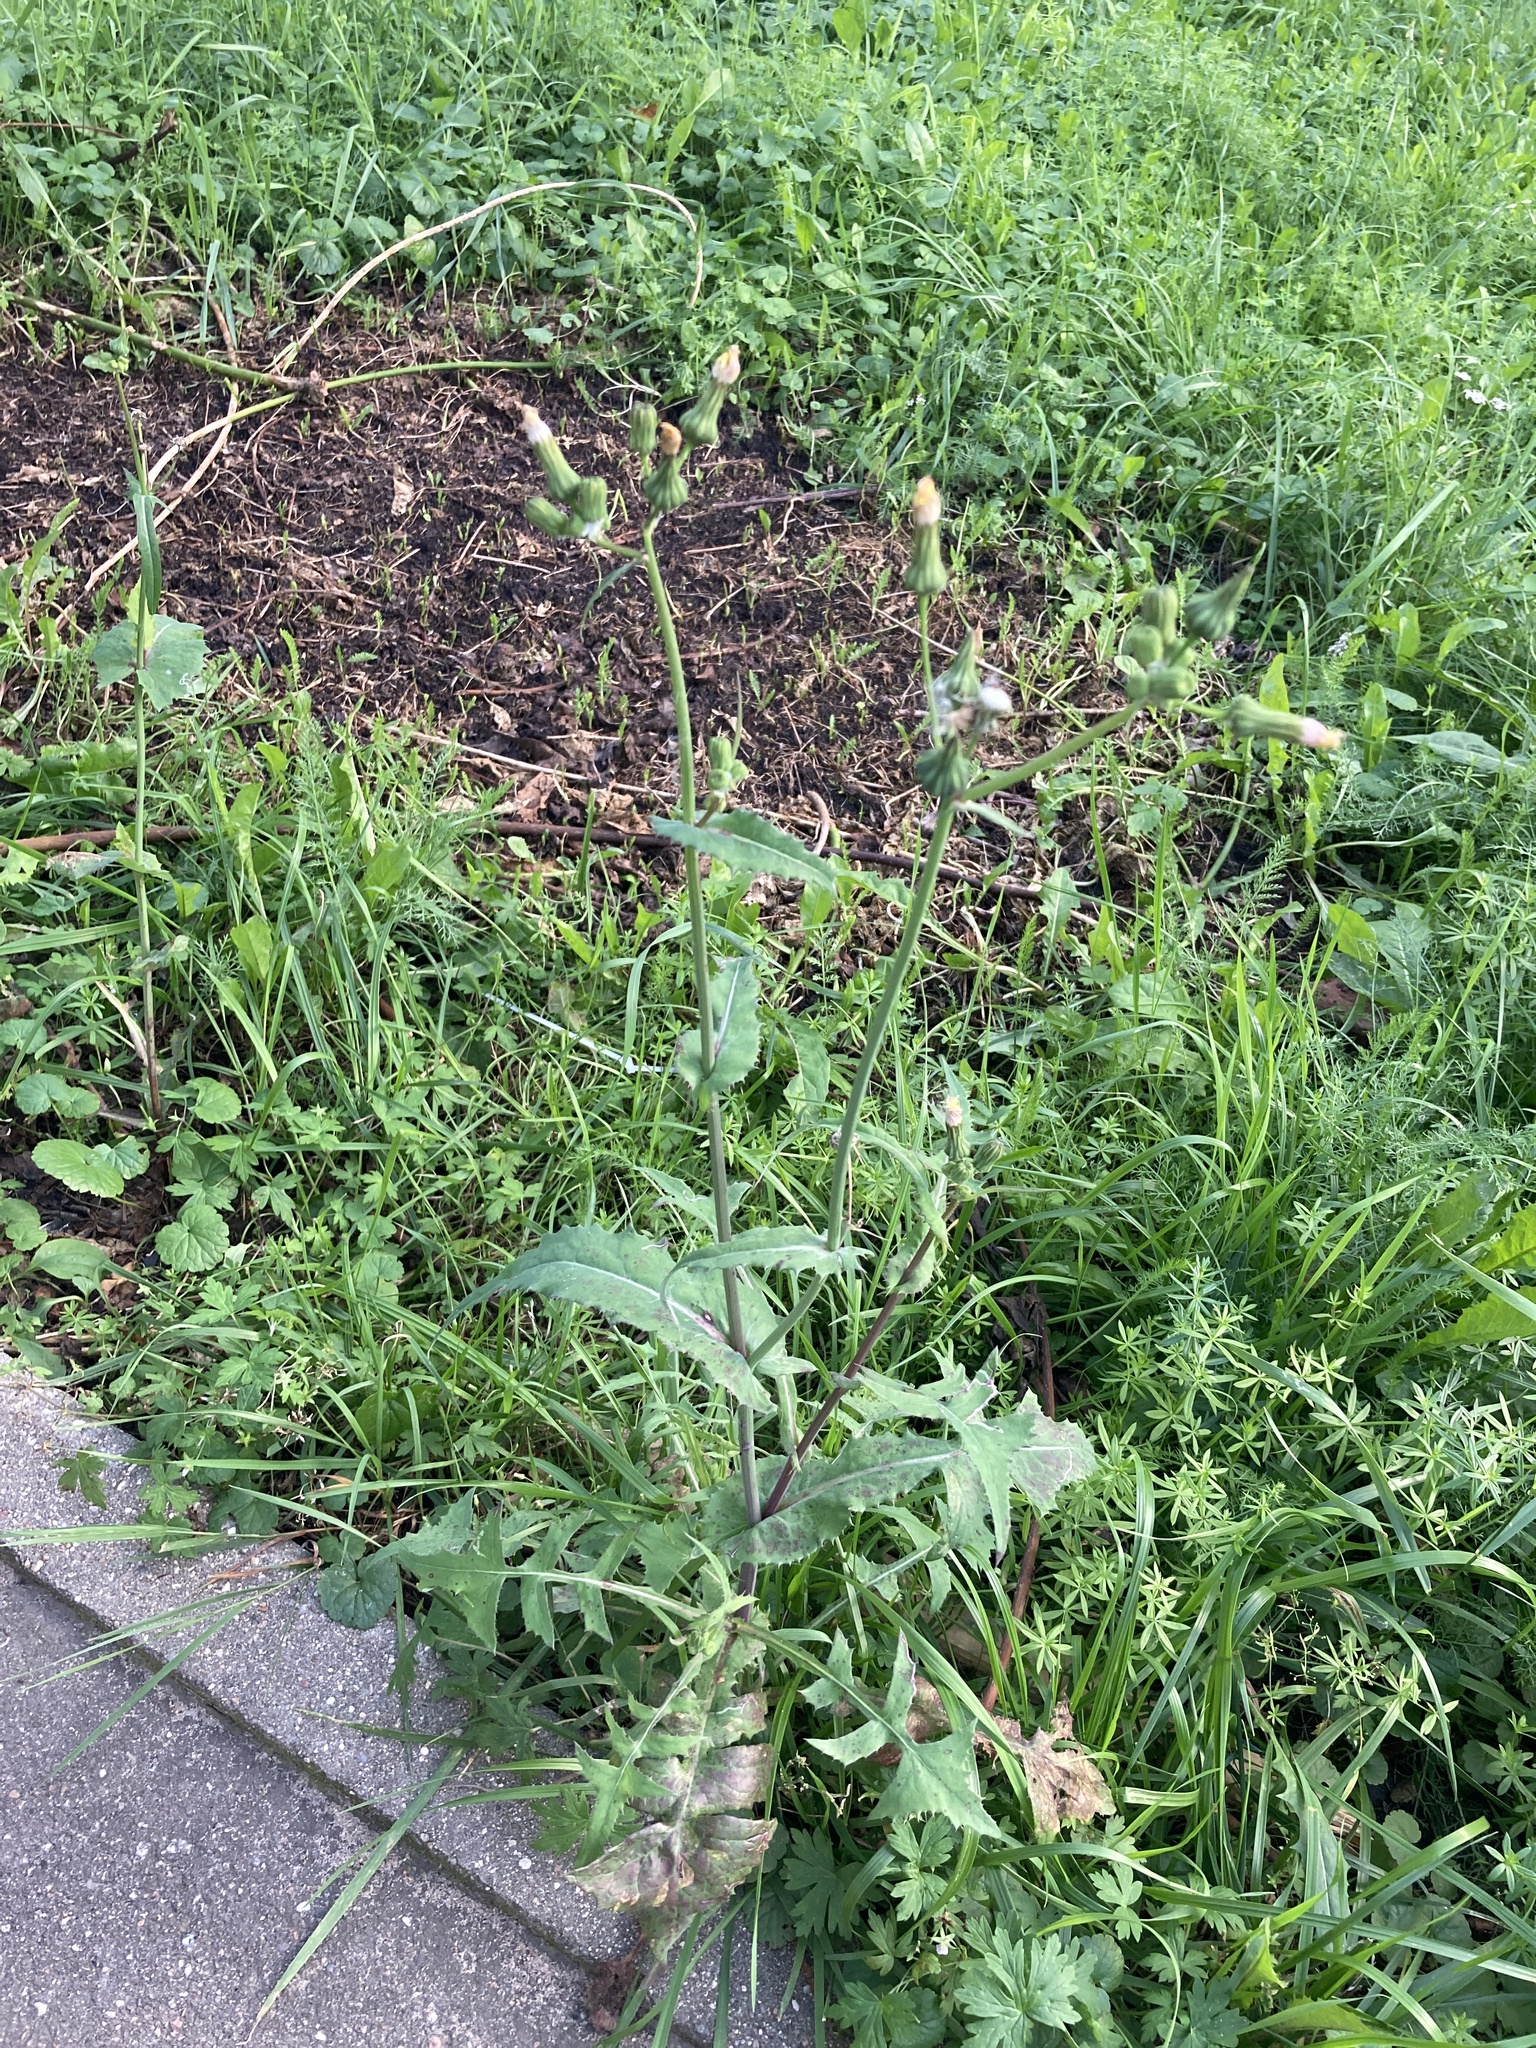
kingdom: Plantae
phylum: Tracheophyta
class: Magnoliopsida
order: Asterales
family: Asteraceae
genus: Sonchus
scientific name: Sonchus oleraceus
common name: Common sowthistle
